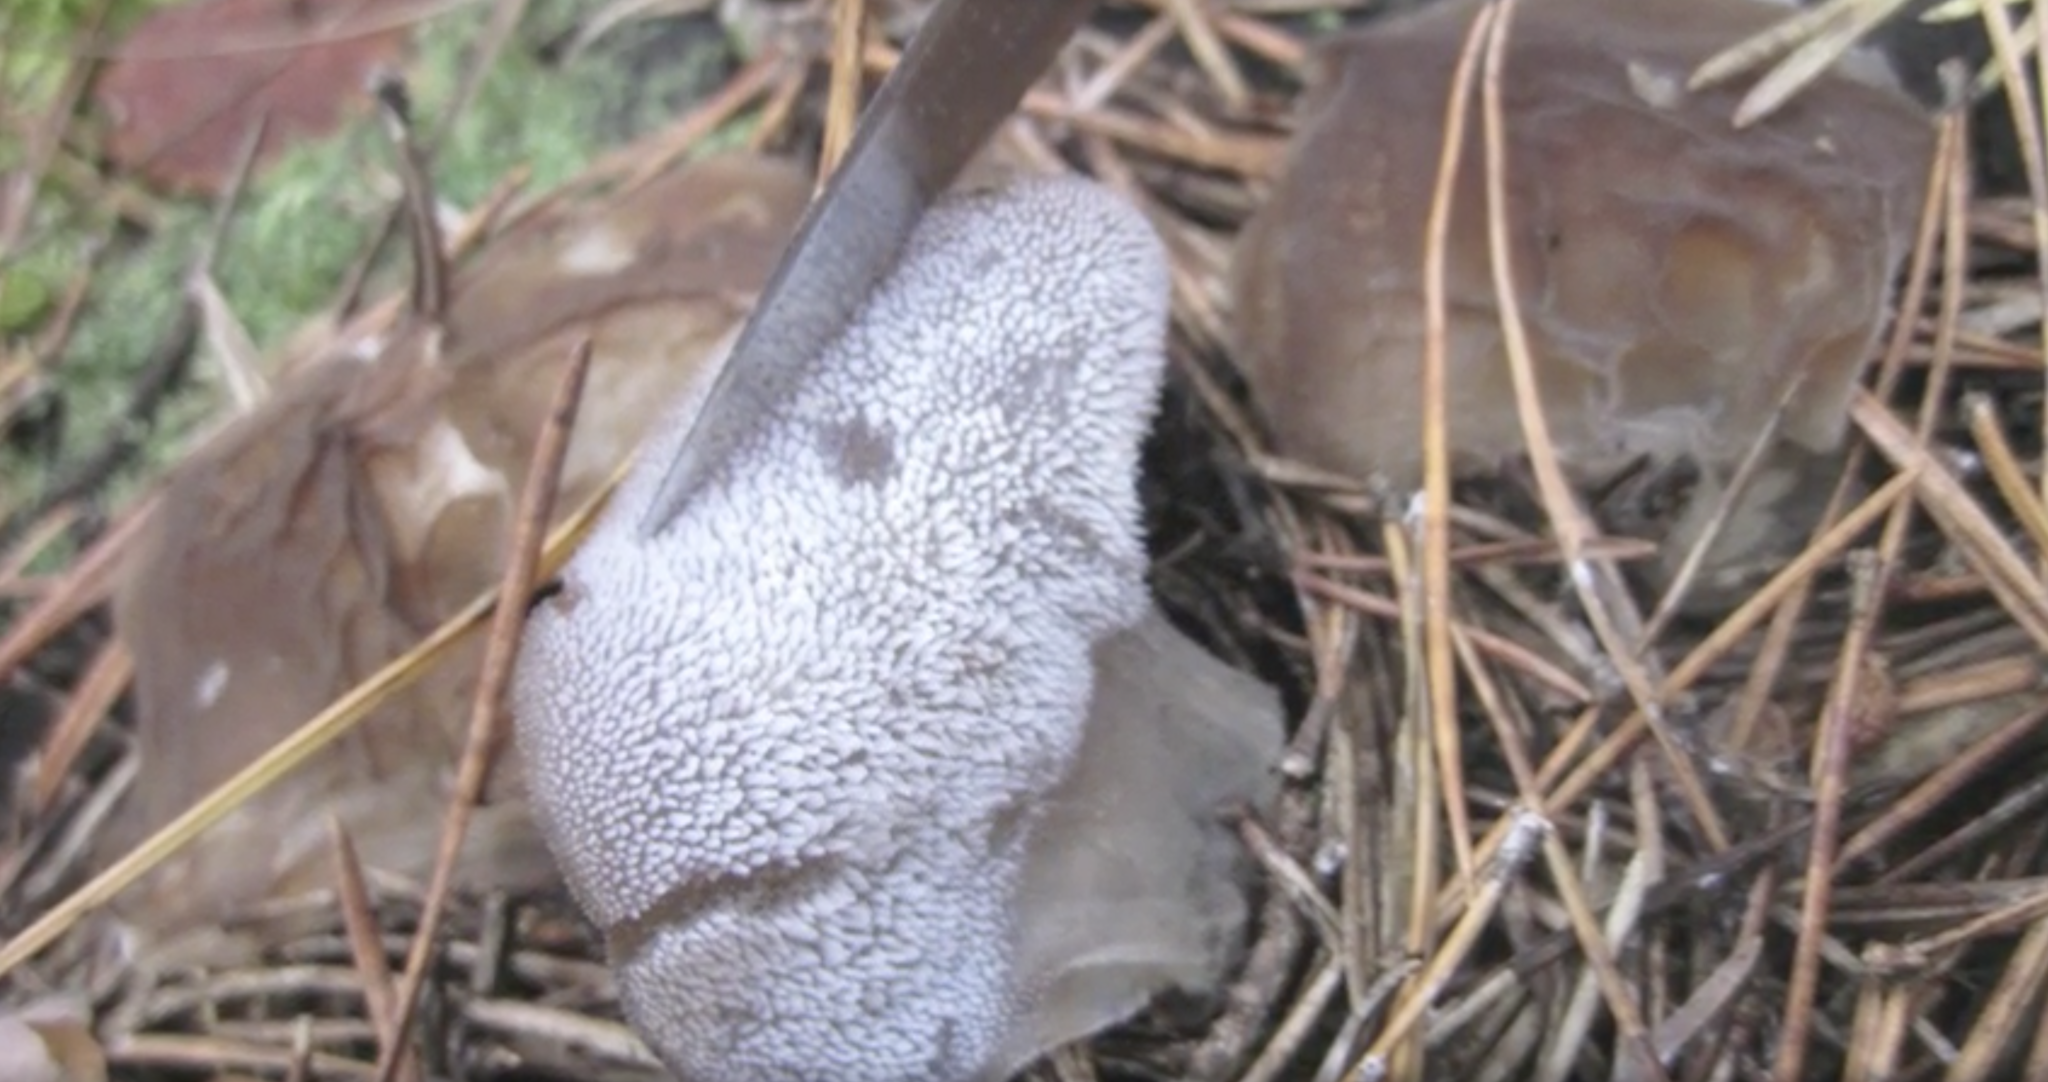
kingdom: Fungi
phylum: Basidiomycota
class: Agaricomycetes
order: Auriculariales
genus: Pseudohydnum
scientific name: Pseudohydnum gelatinosum
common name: Jelly tongue
